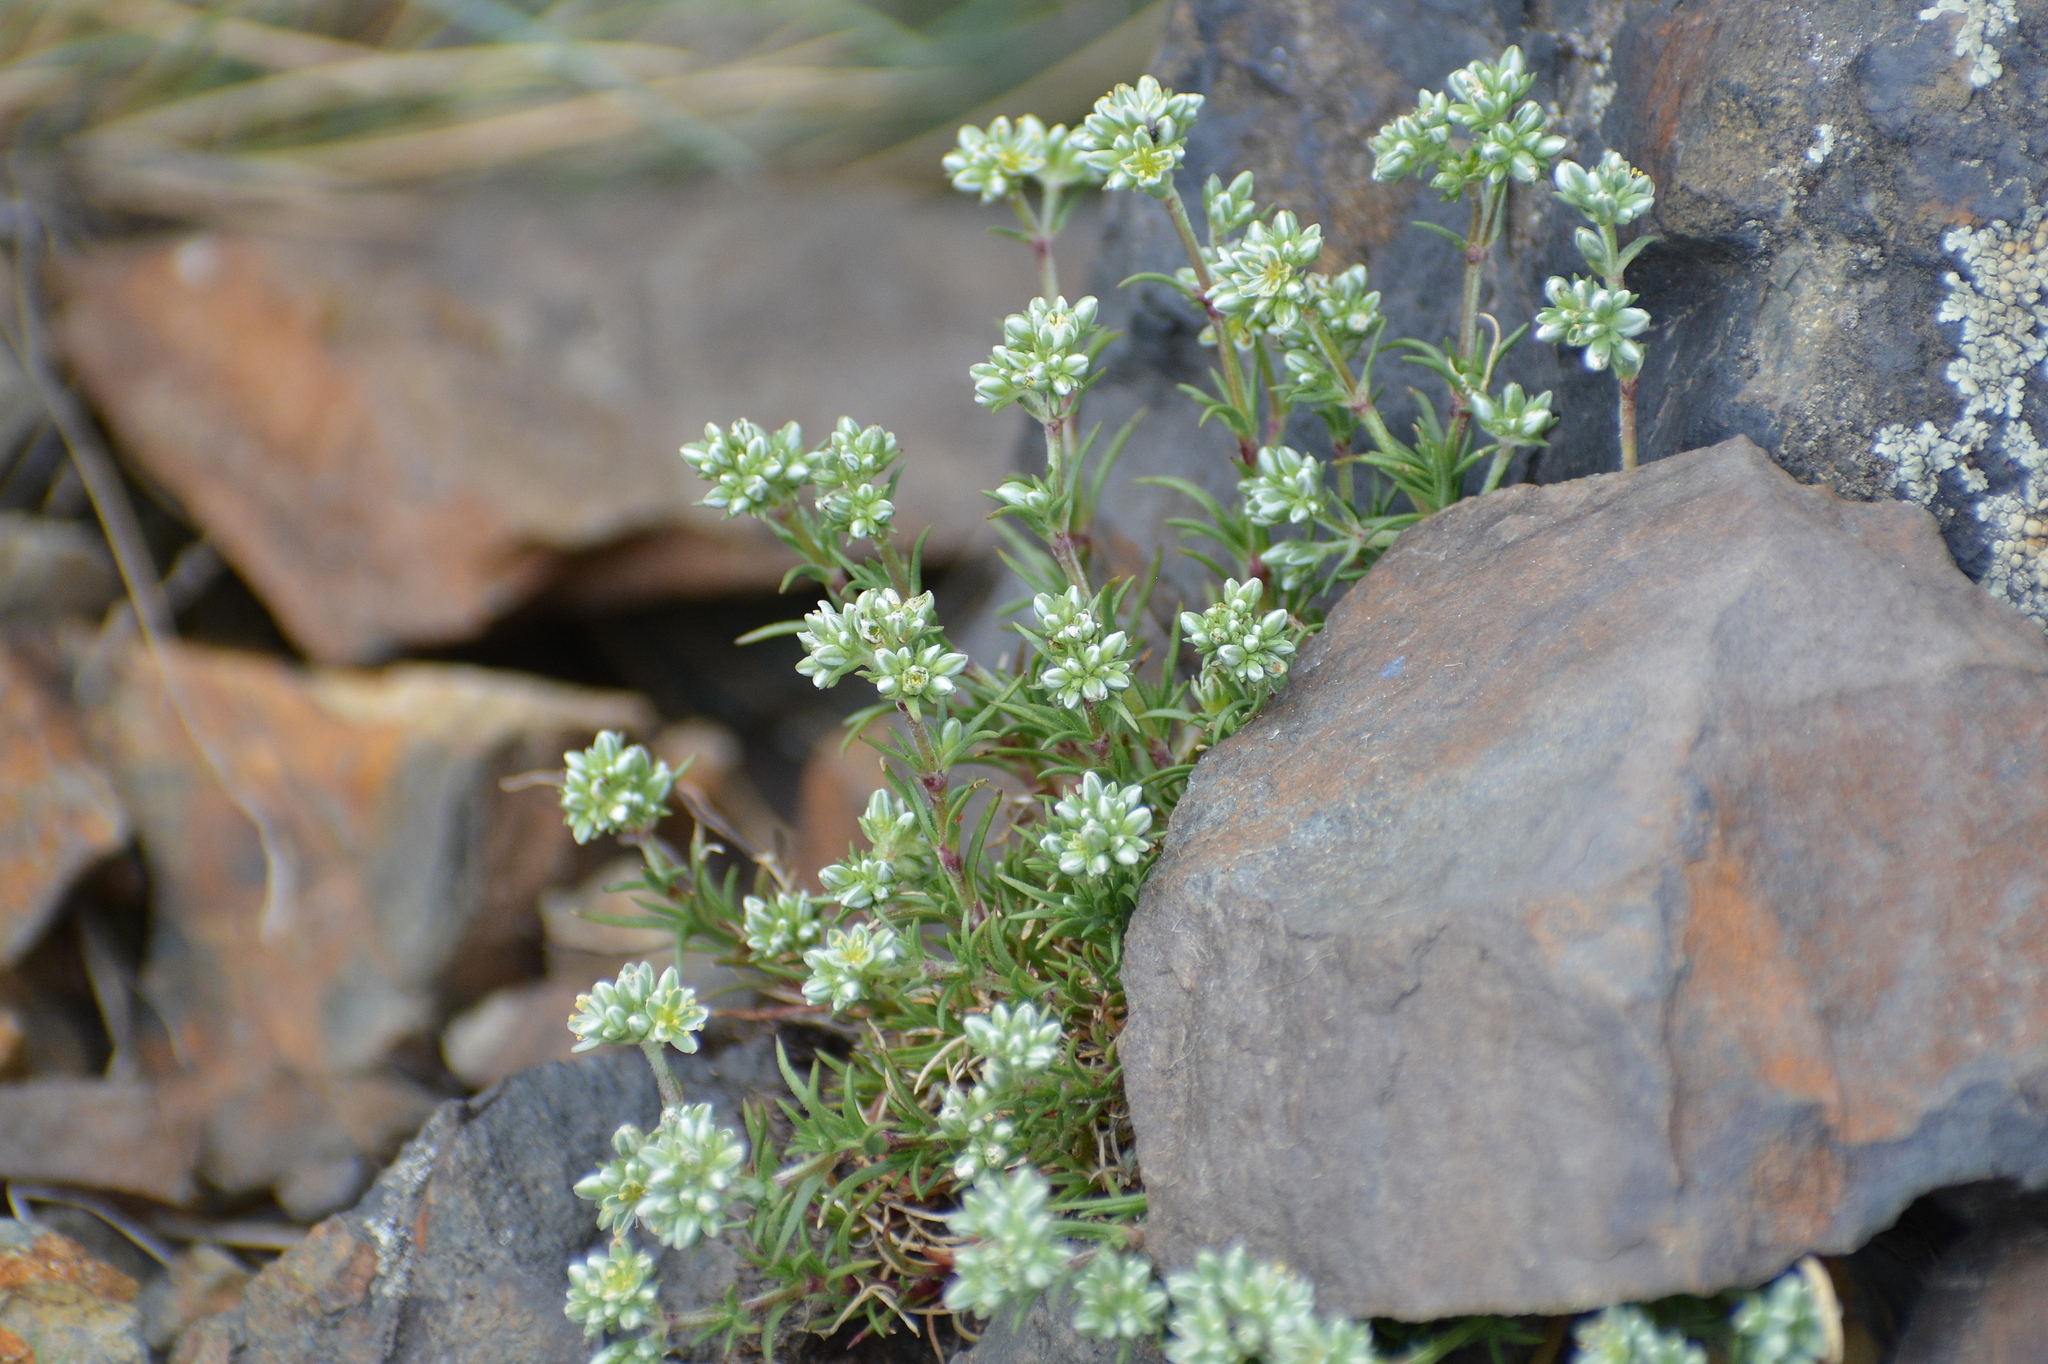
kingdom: Plantae
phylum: Tracheophyta
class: Magnoliopsida
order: Caryophyllales
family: Caryophyllaceae
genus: Scleranthus
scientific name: Scleranthus perennis
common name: Perennial knawel
